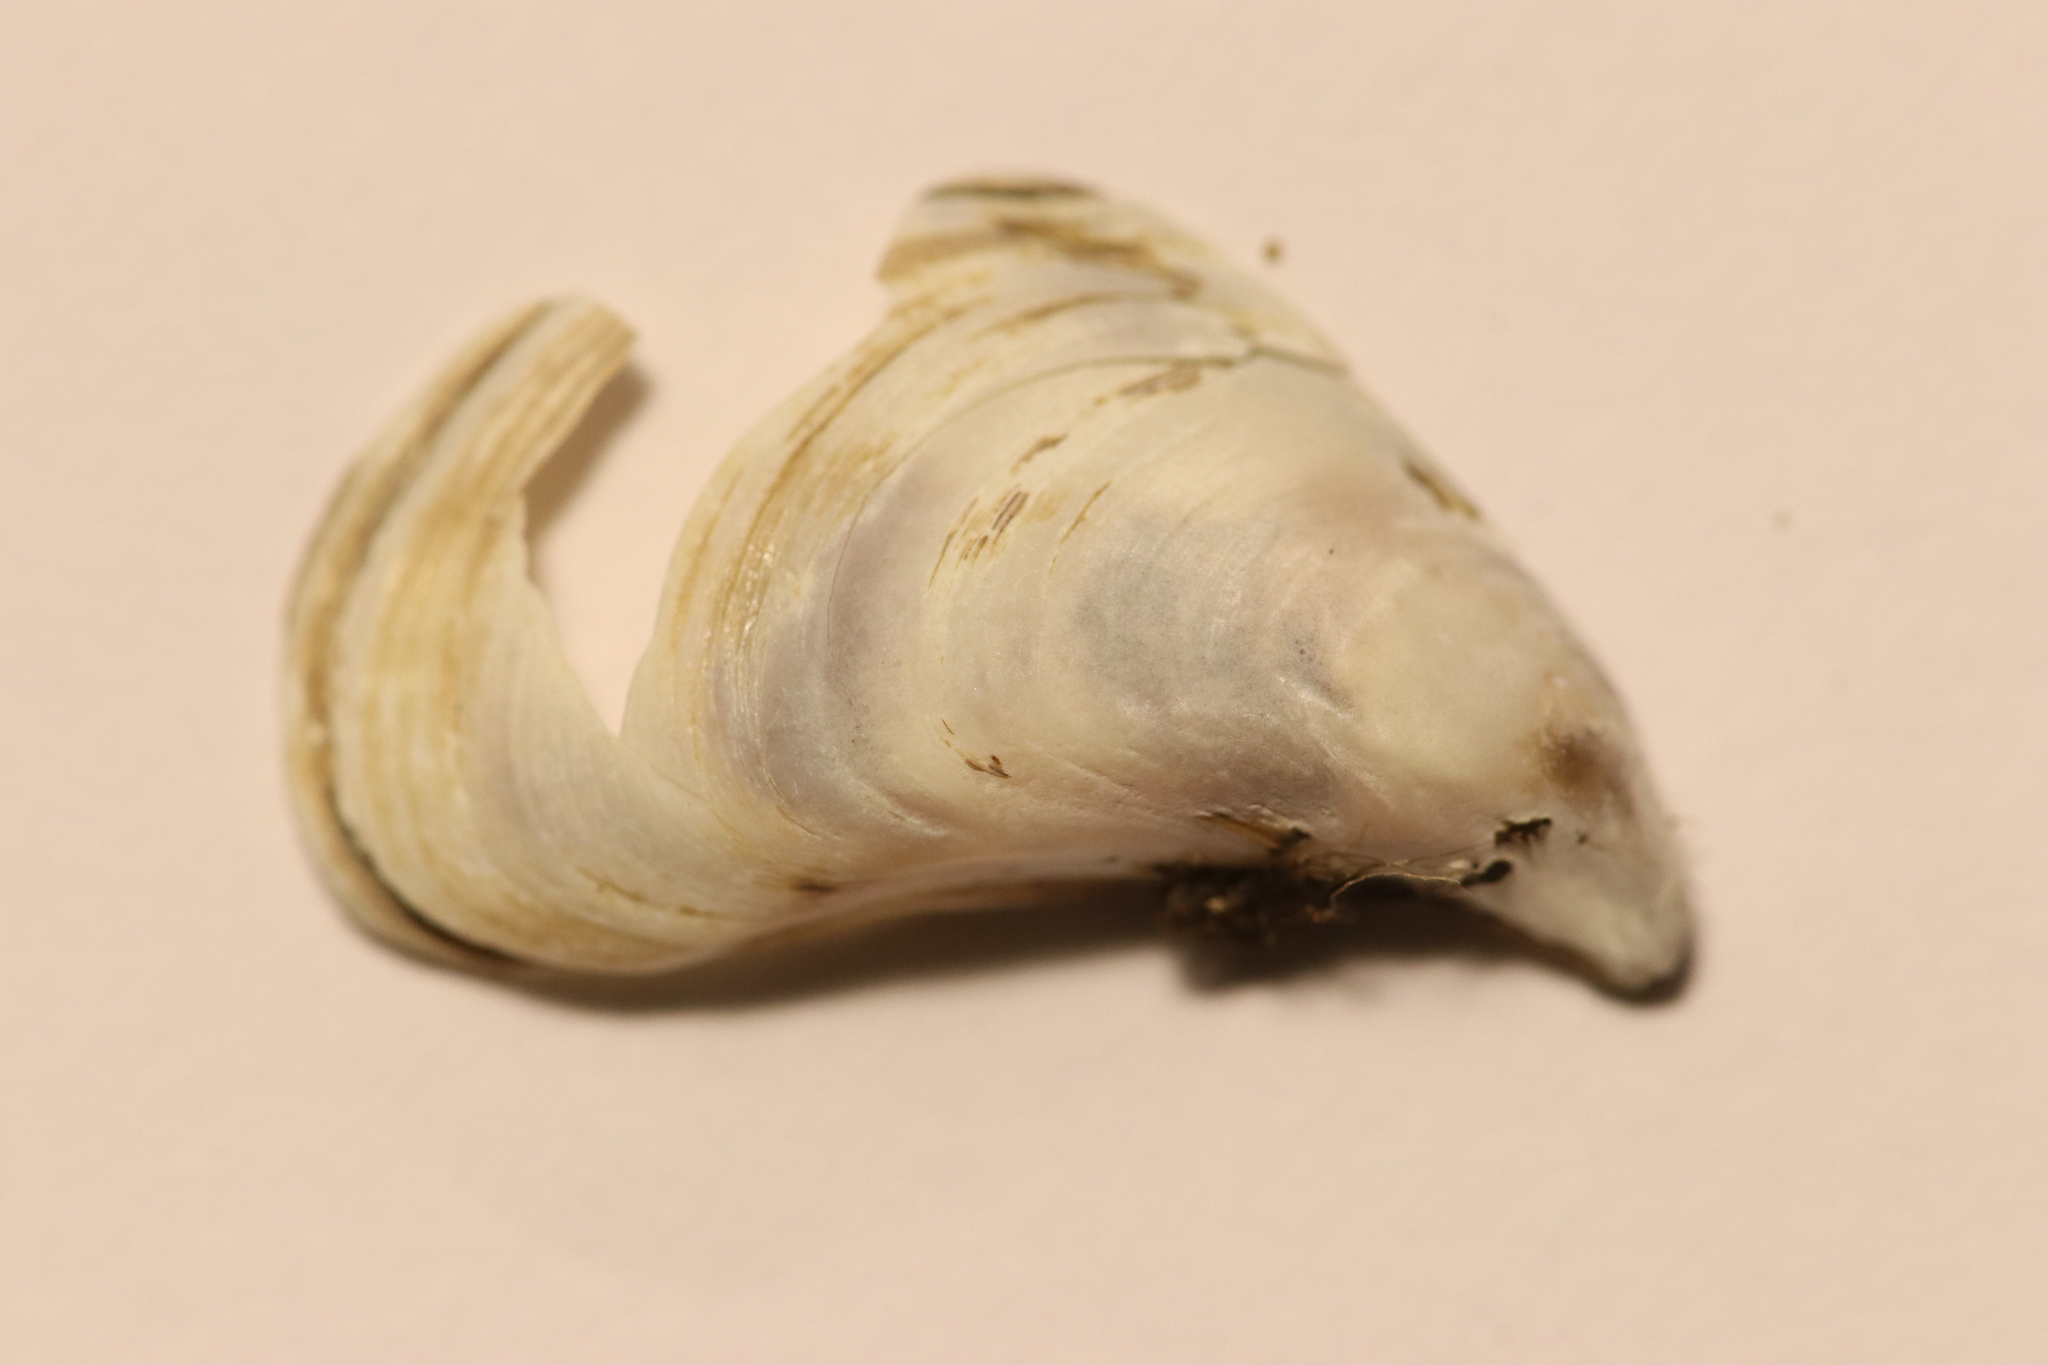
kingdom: Animalia
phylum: Mollusca
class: Bivalvia
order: Myida
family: Dreissenidae
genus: Dreissena
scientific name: Dreissena bugensis
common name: Quagga mussel
